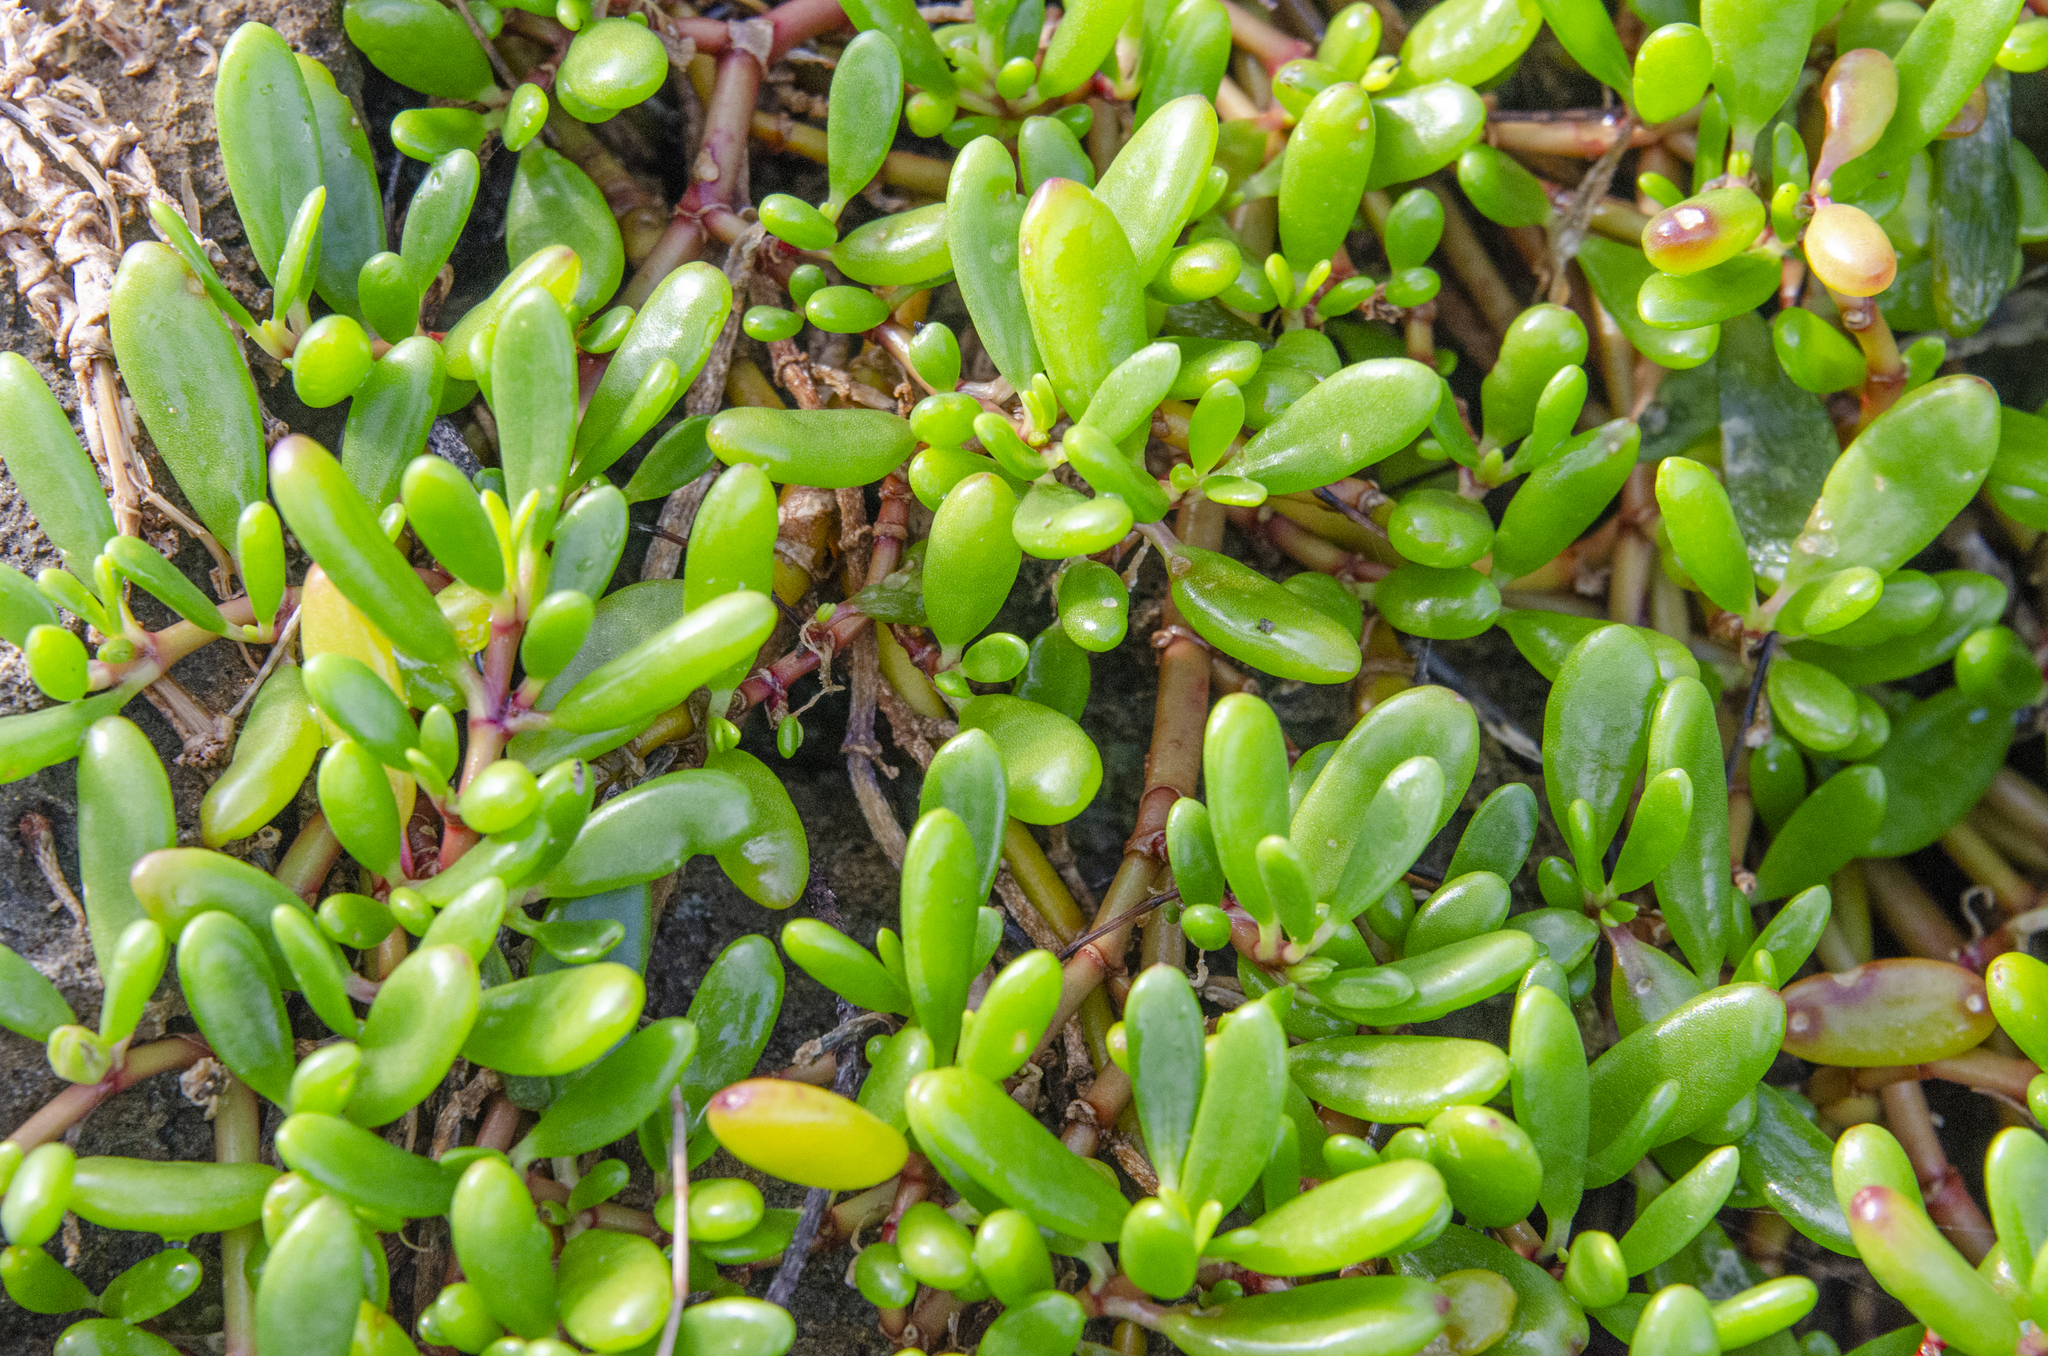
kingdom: Plantae
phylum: Tracheophyta
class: Magnoliopsida
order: Caryophyllales
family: Aizoaceae
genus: Sesuvium
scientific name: Sesuvium portulacastrum
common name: Sea-purslane
